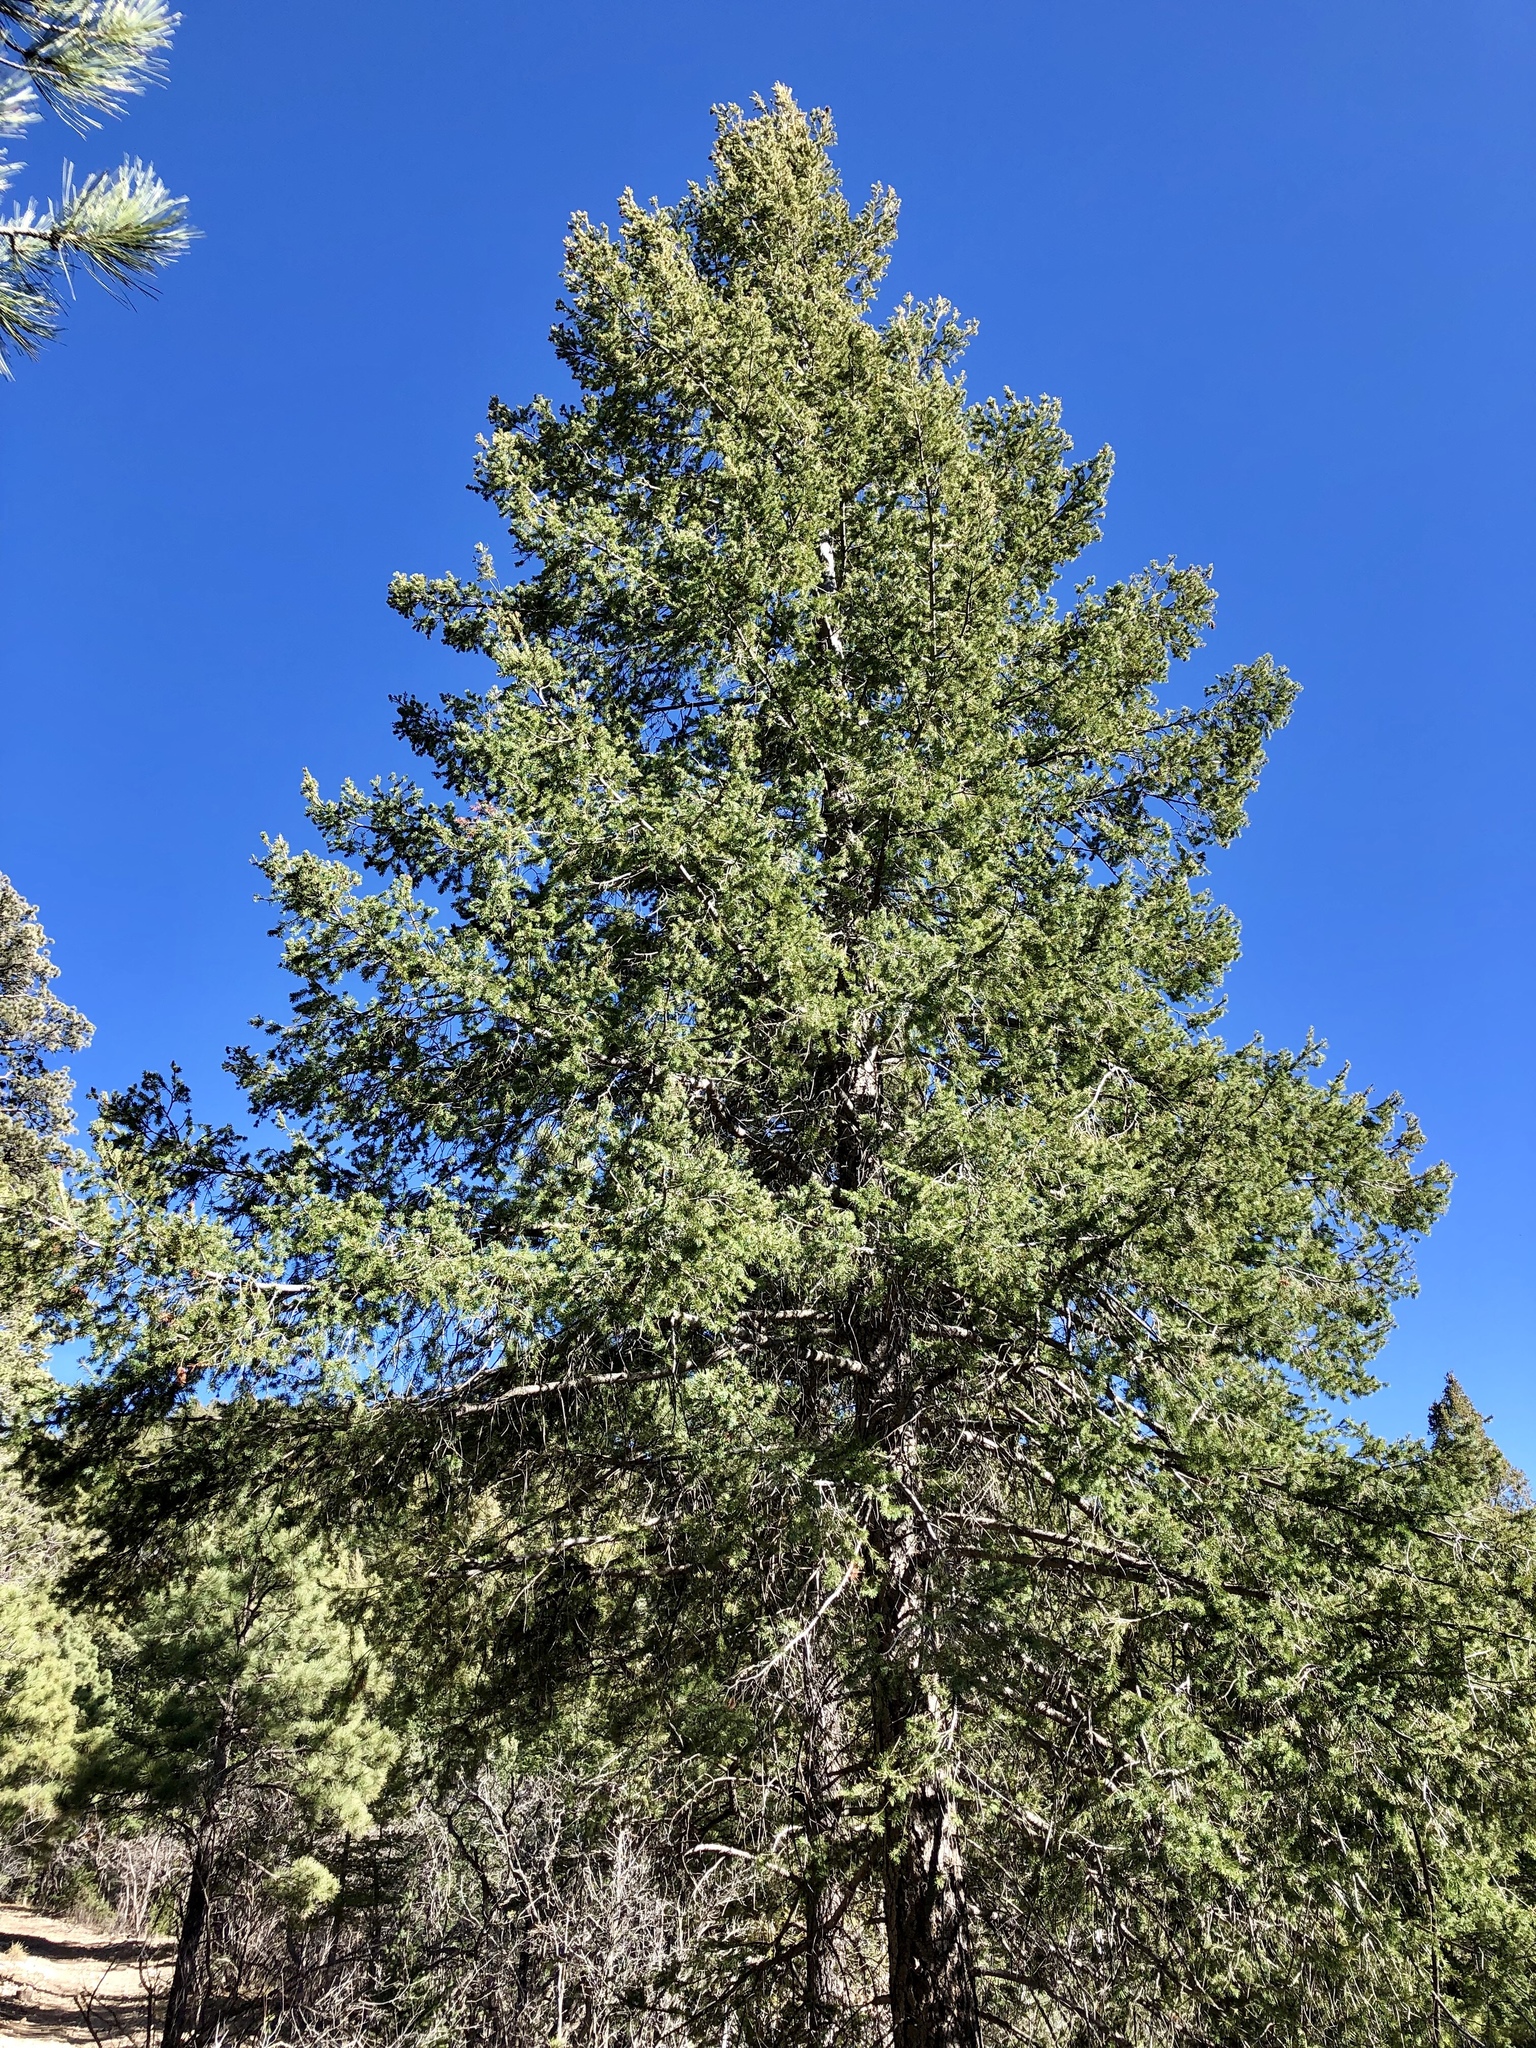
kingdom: Plantae
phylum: Tracheophyta
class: Pinopsida
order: Pinales
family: Pinaceae
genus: Pseudotsuga
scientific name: Pseudotsuga menziesii
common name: Douglas fir
